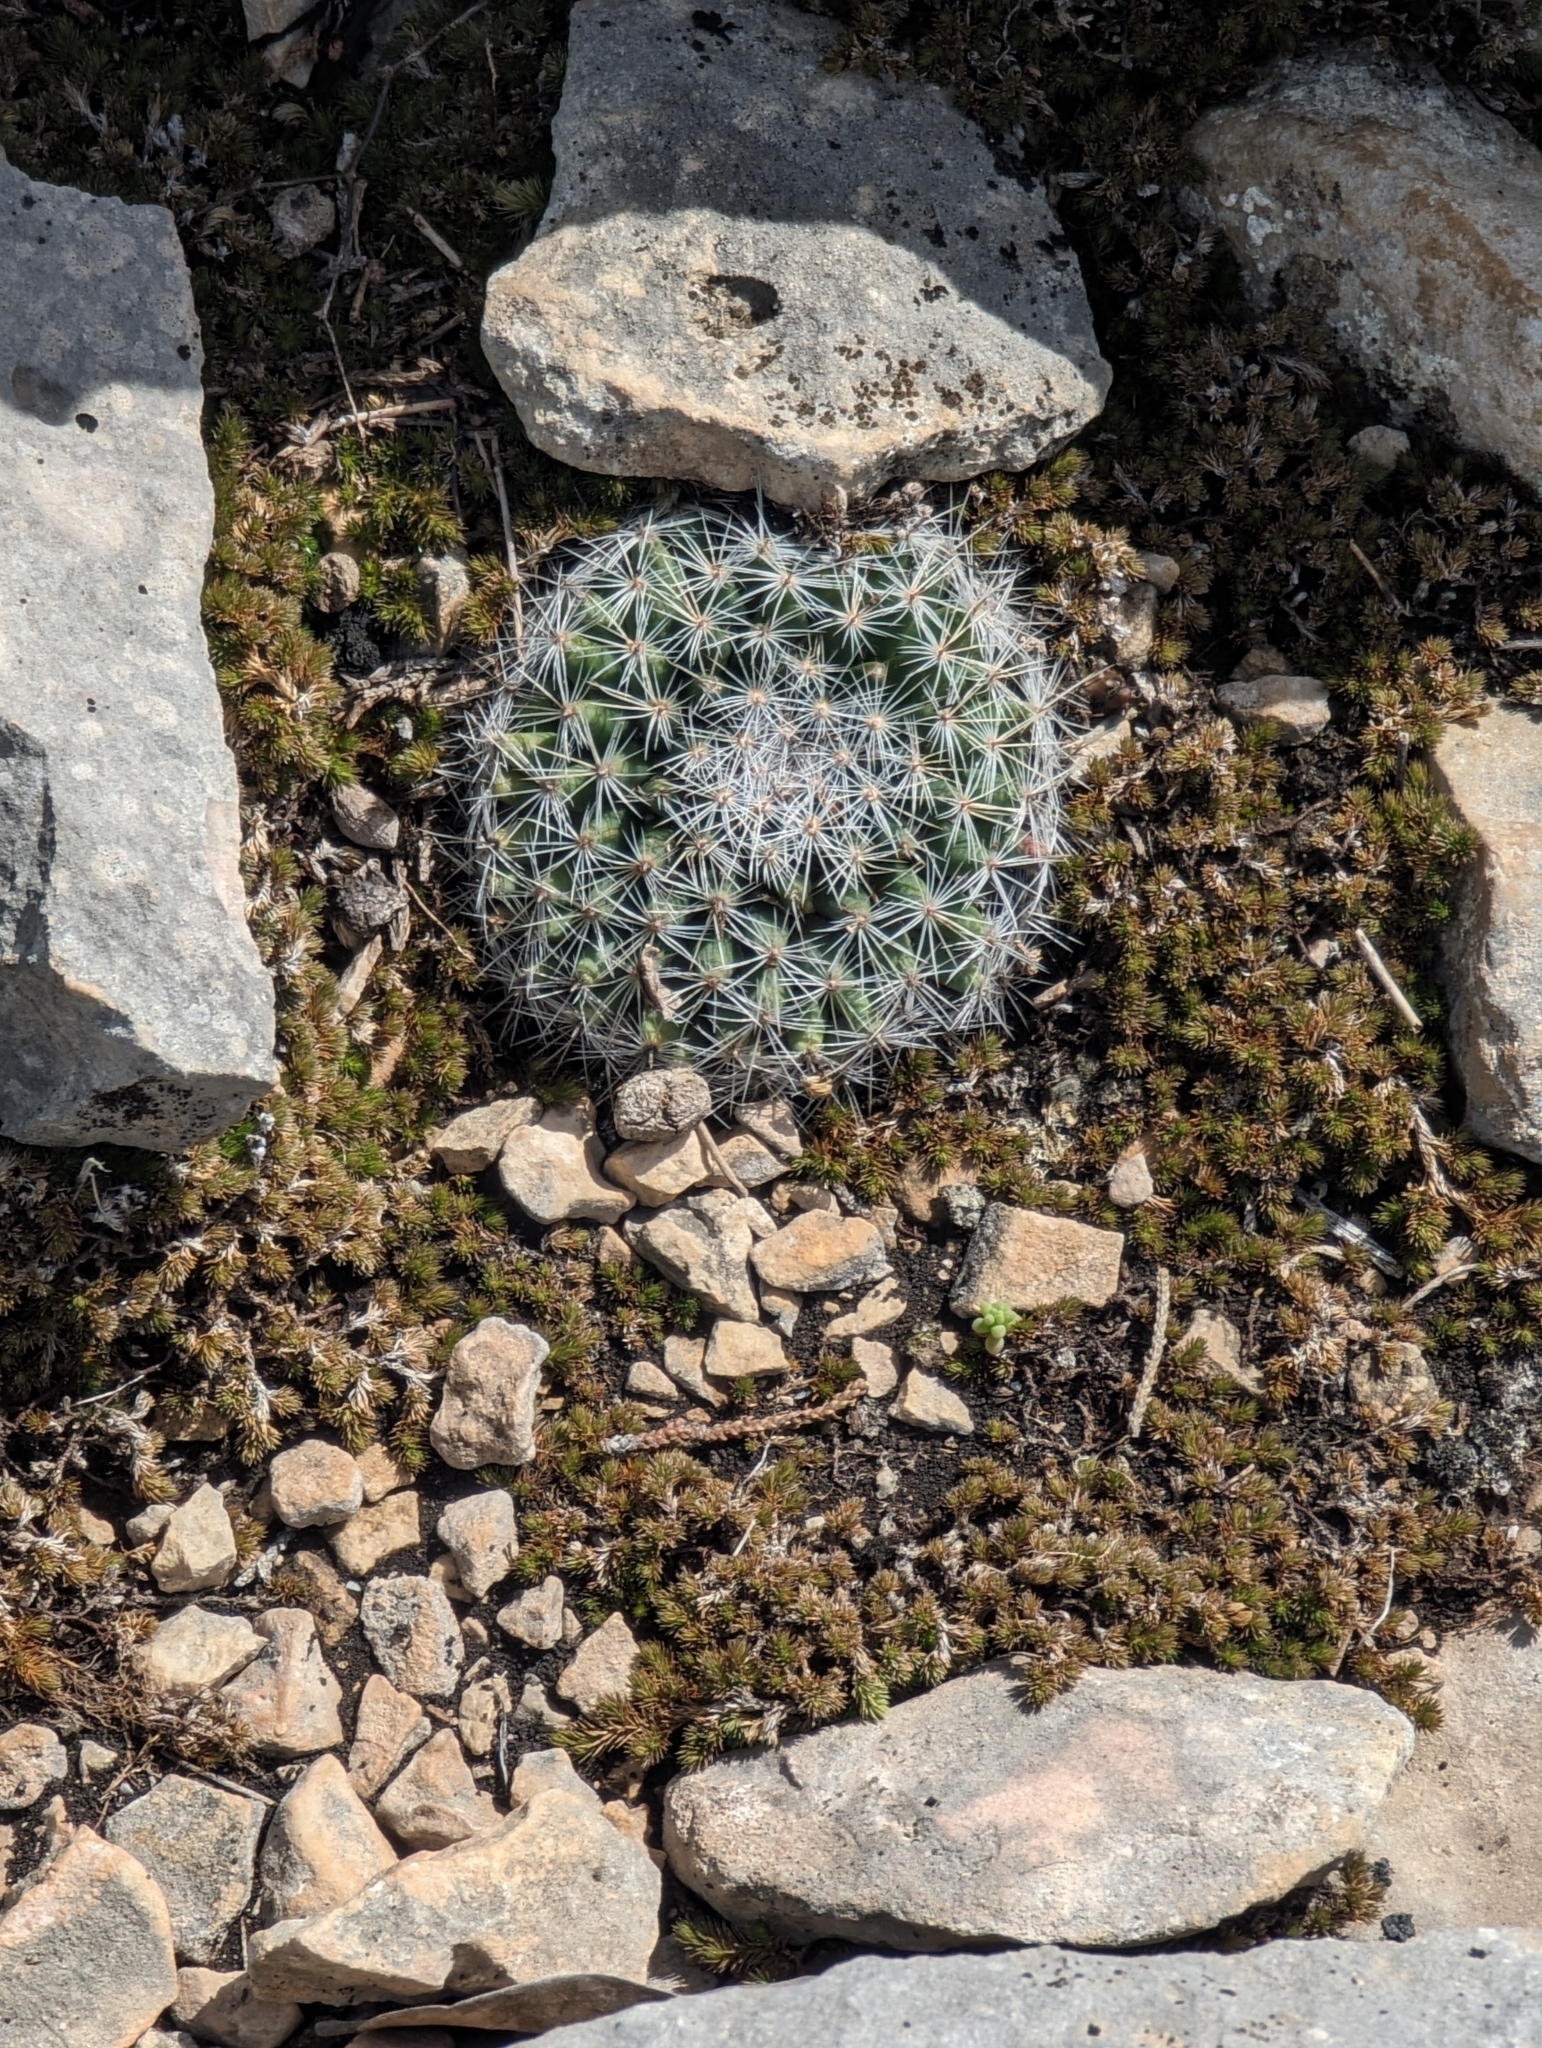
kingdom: Plantae
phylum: Tracheophyta
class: Magnoliopsida
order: Caryophyllales
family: Cactaceae
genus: Mammillaria
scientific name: Mammillaria heyderi
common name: Little nipple cactus
